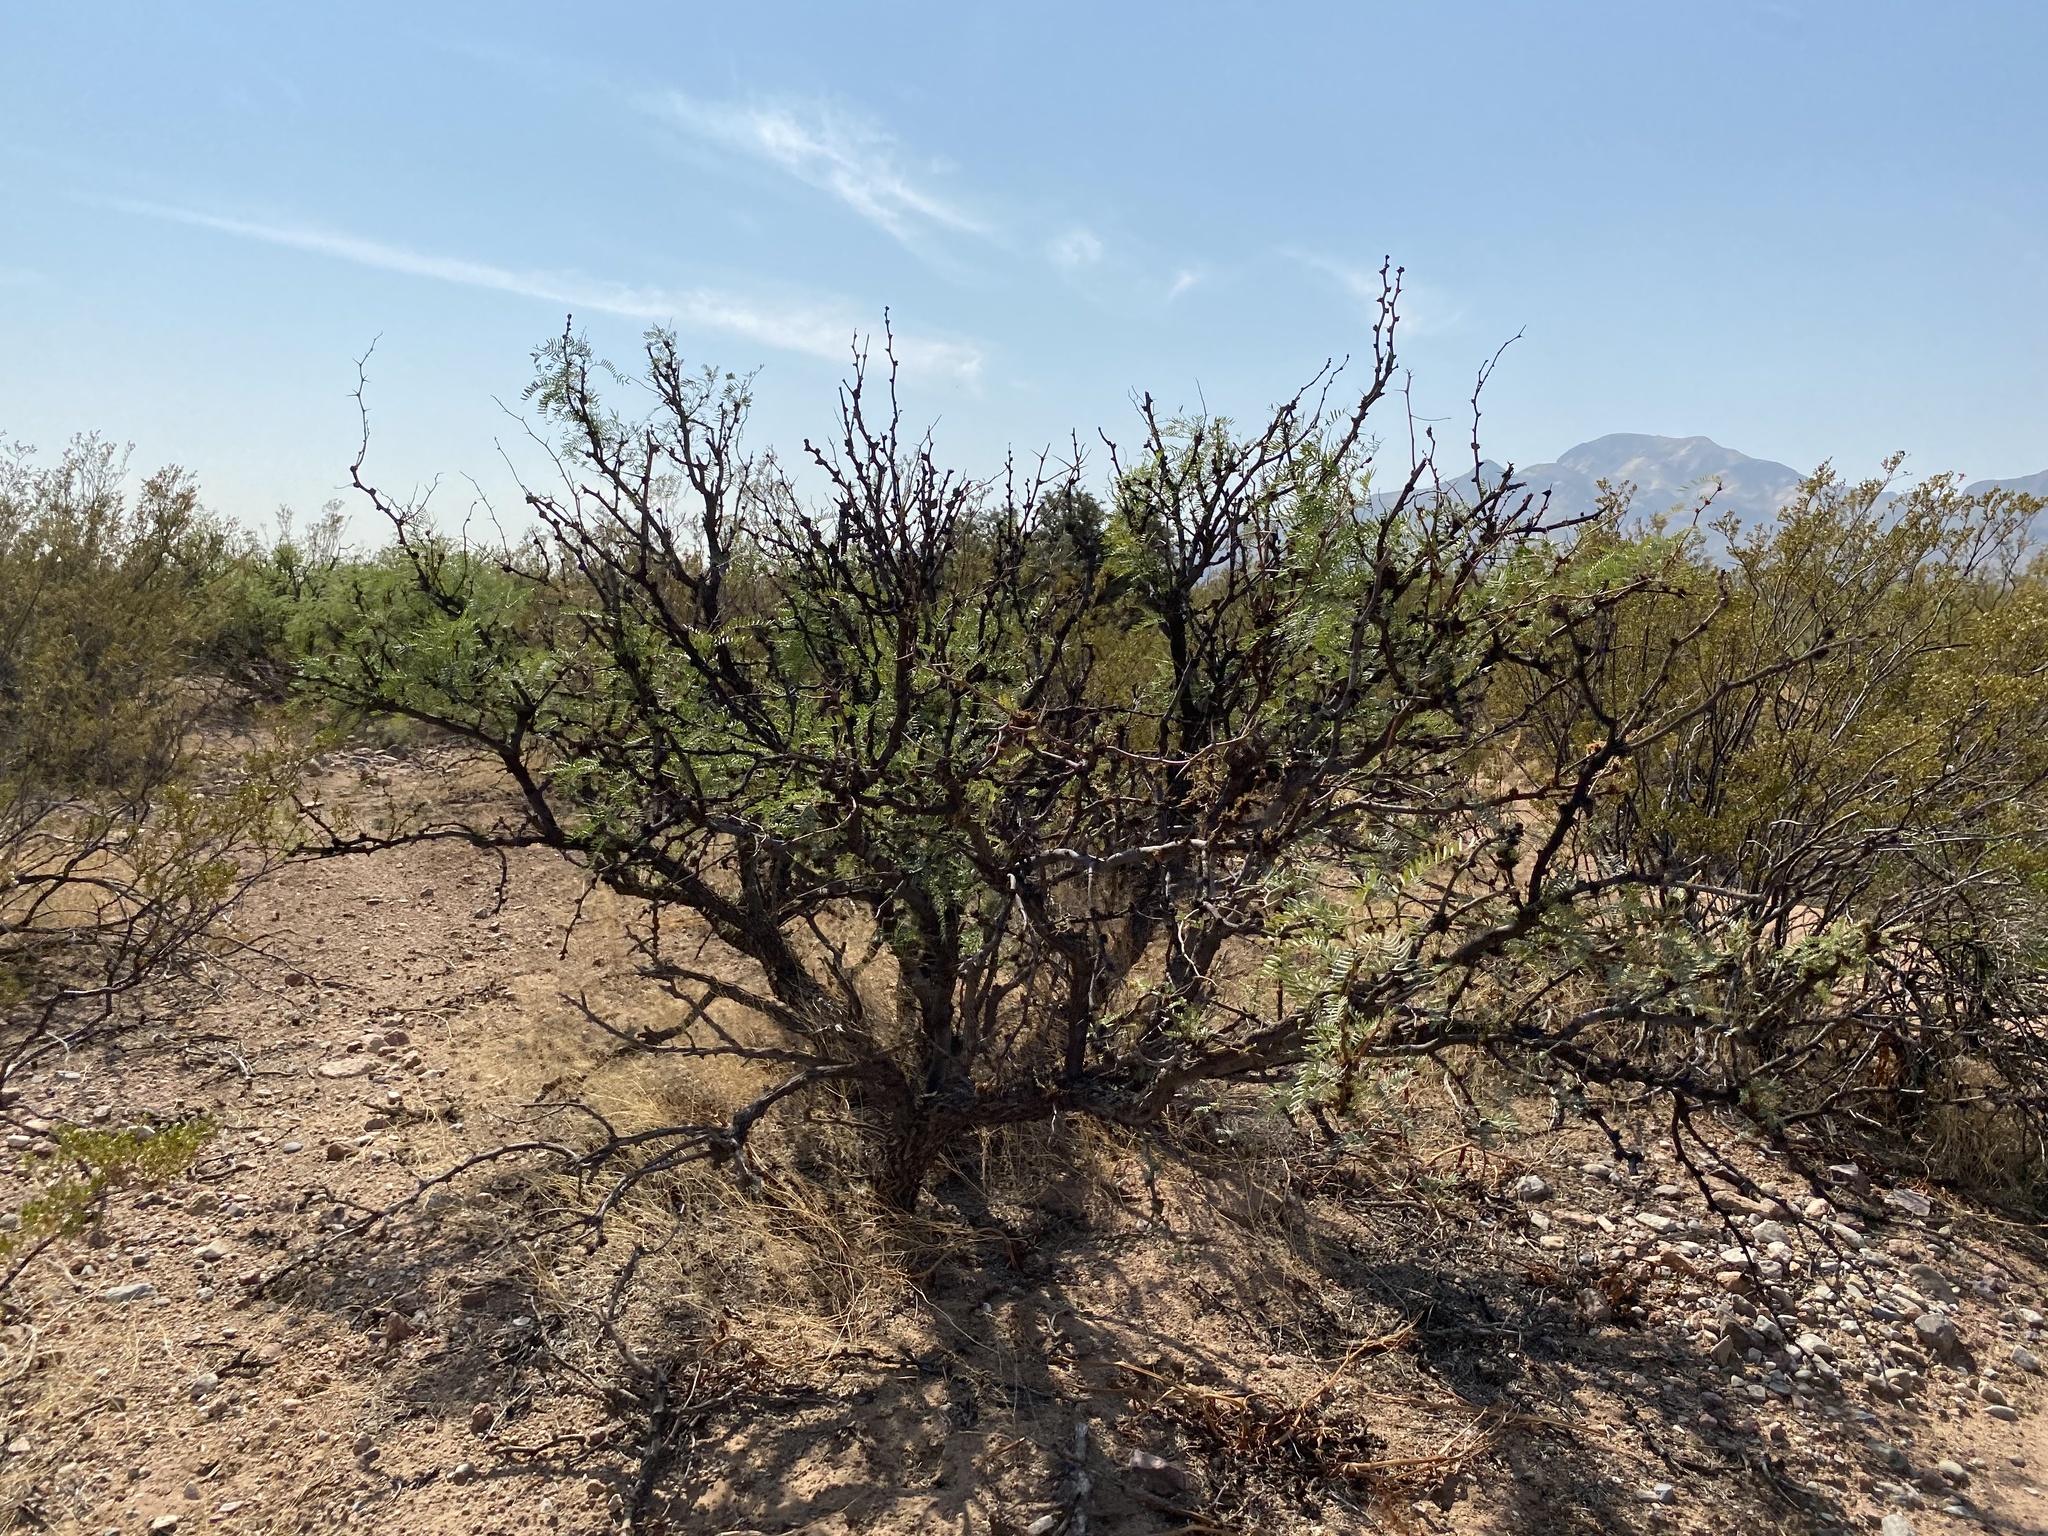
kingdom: Plantae
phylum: Tracheophyta
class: Magnoliopsida
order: Fabales
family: Fabaceae
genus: Prosopis
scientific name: Prosopis glandulosa
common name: Honey mesquite
